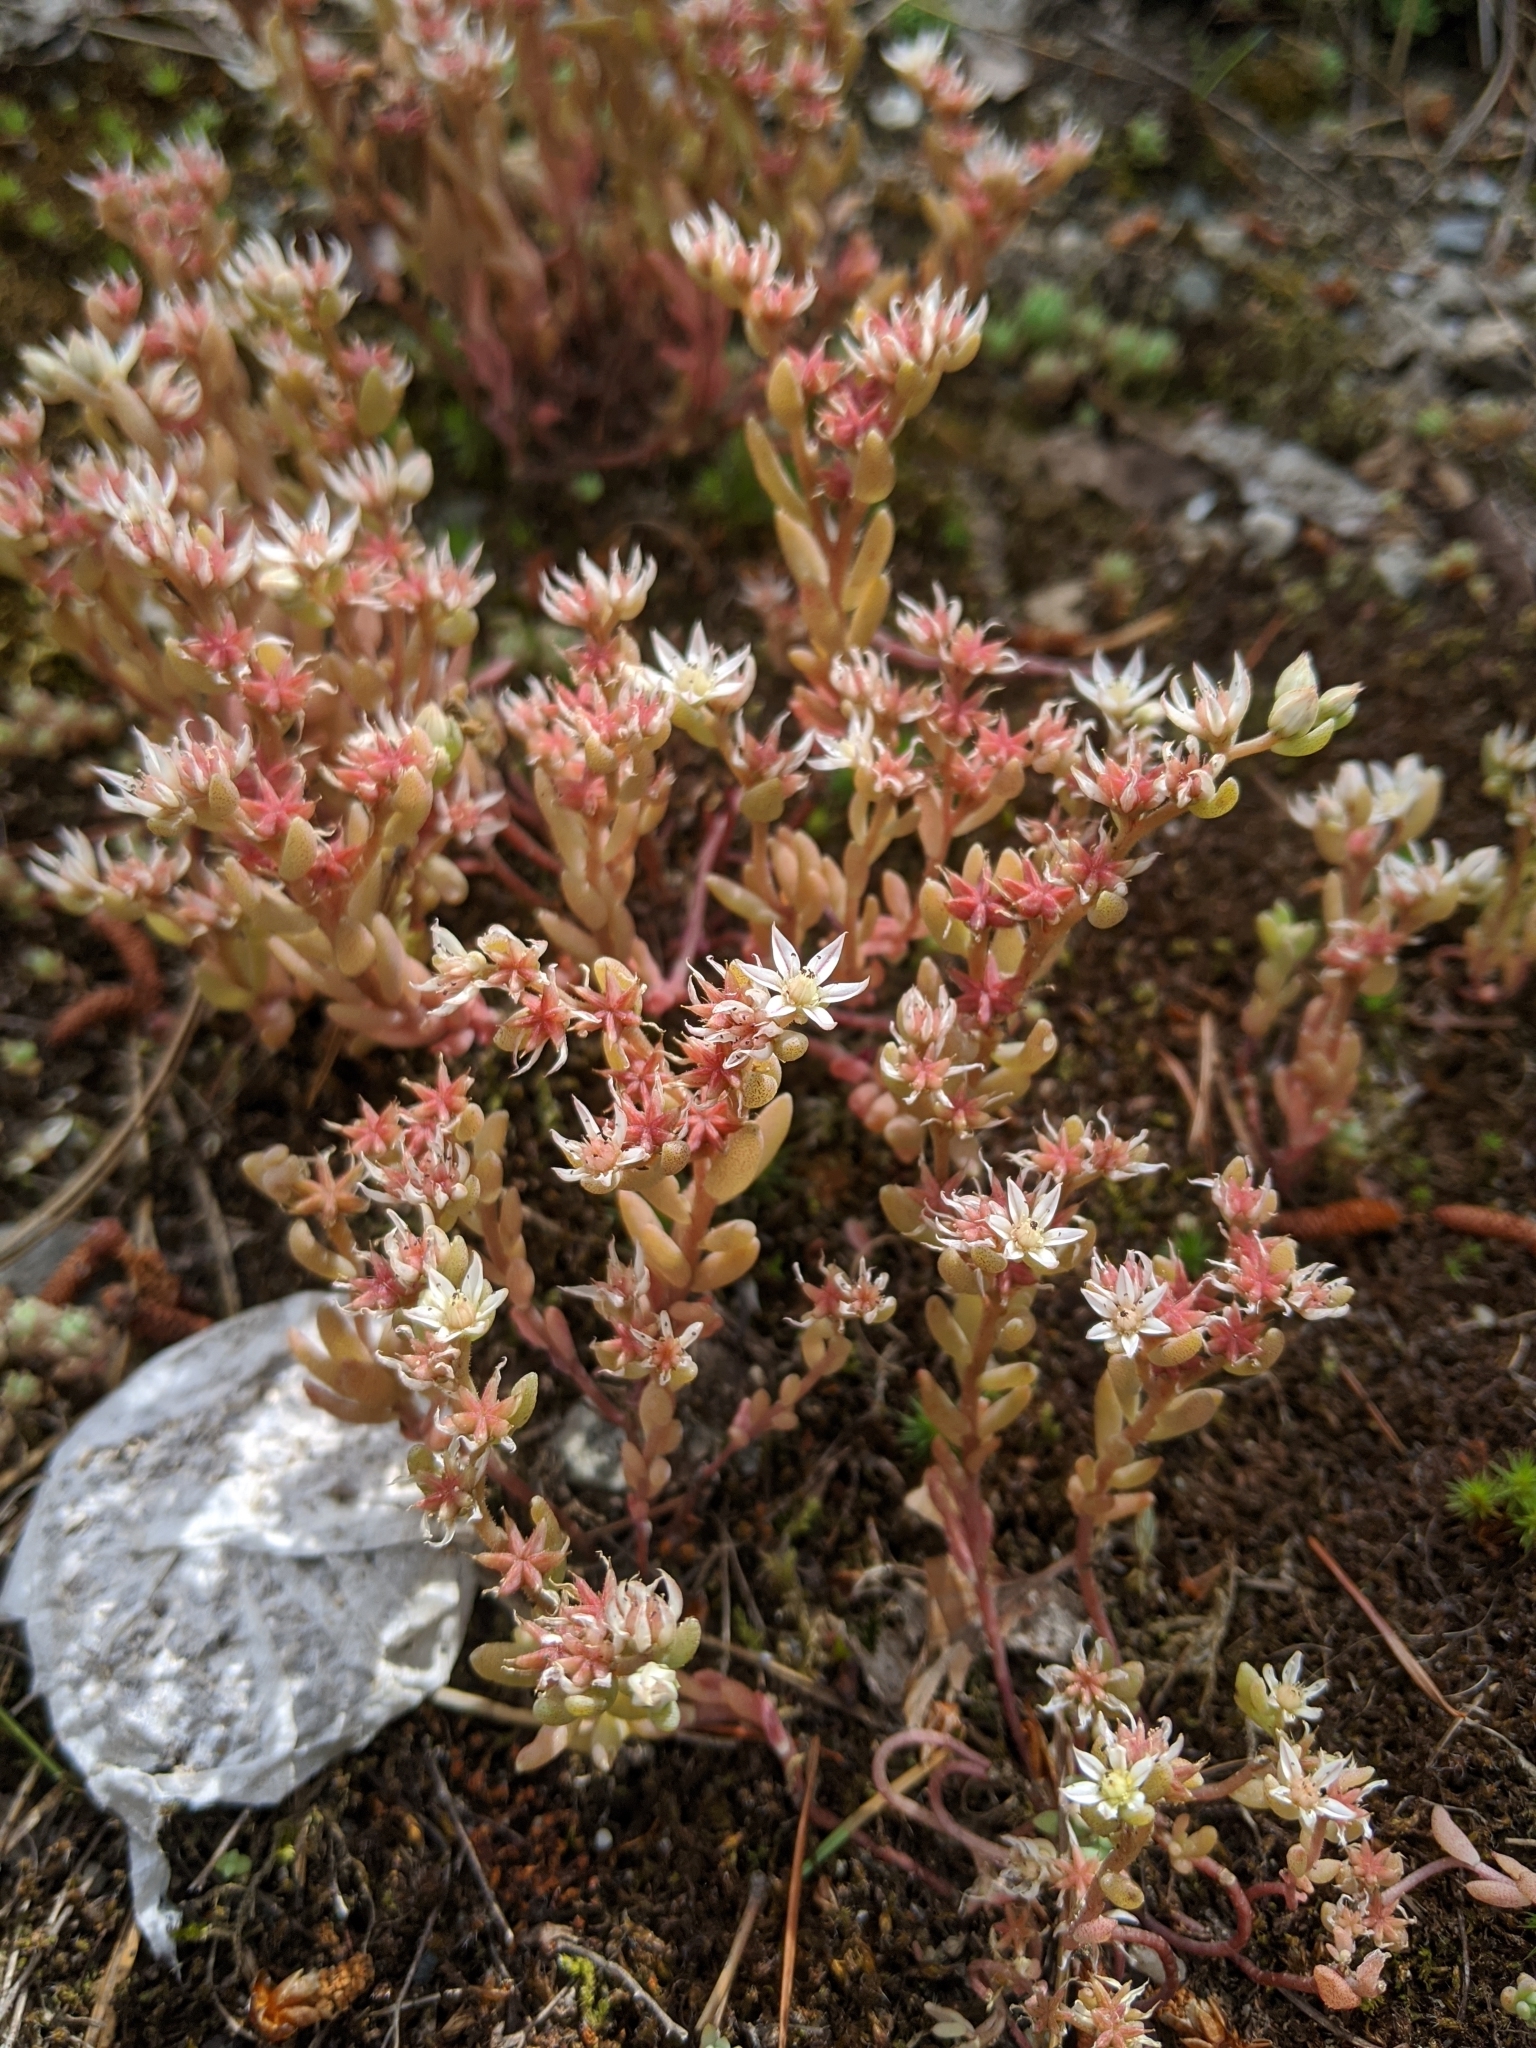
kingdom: Plantae
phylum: Tracheophyta
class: Magnoliopsida
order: Saxifragales
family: Crassulaceae
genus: Sedum
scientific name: Sedum hispanicum
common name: Spanish stonecrop
